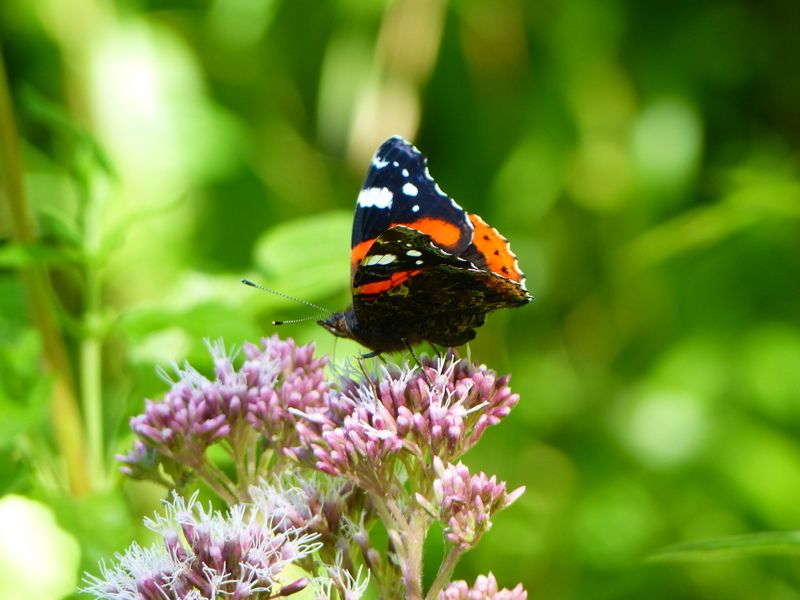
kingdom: Animalia
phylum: Arthropoda
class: Insecta
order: Lepidoptera
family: Nymphalidae
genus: Vanessa
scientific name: Vanessa atalanta
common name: Red admiral
